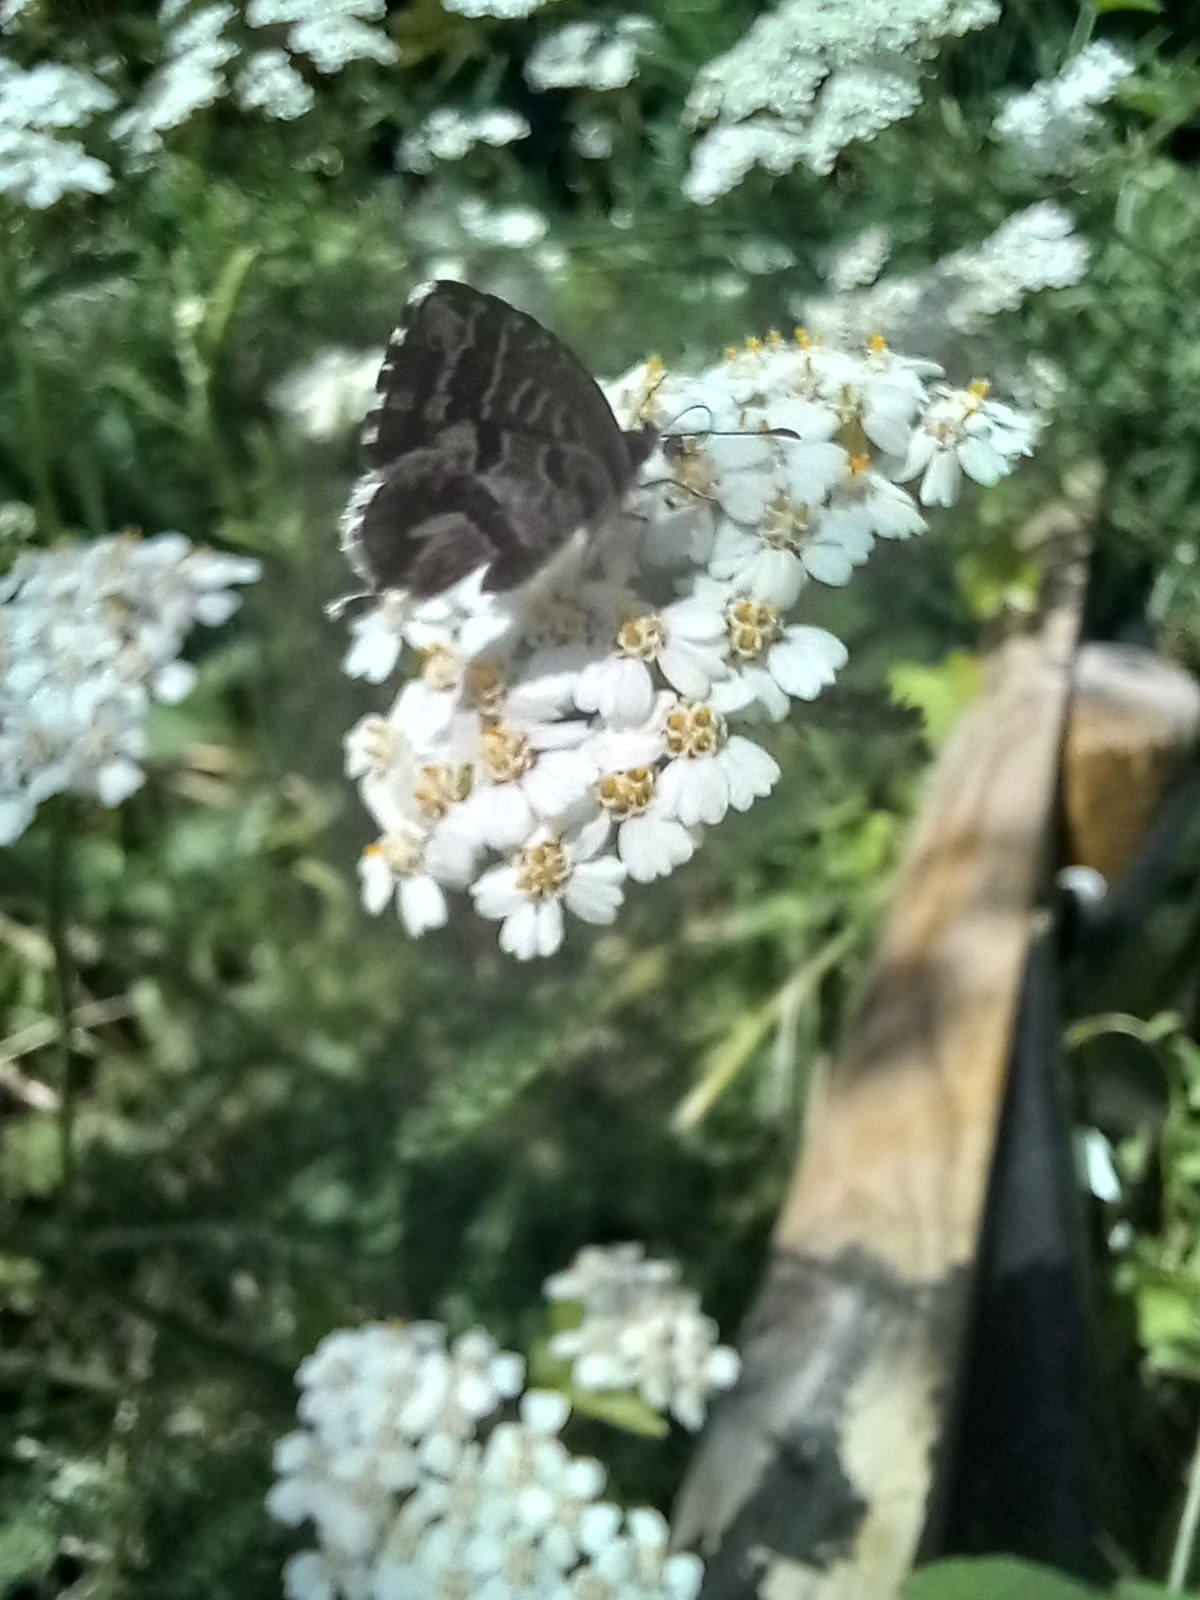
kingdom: Animalia
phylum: Arthropoda
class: Insecta
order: Lepidoptera
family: Lycaenidae
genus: Cacyreus
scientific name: Cacyreus marshalli
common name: Geranium bronze
